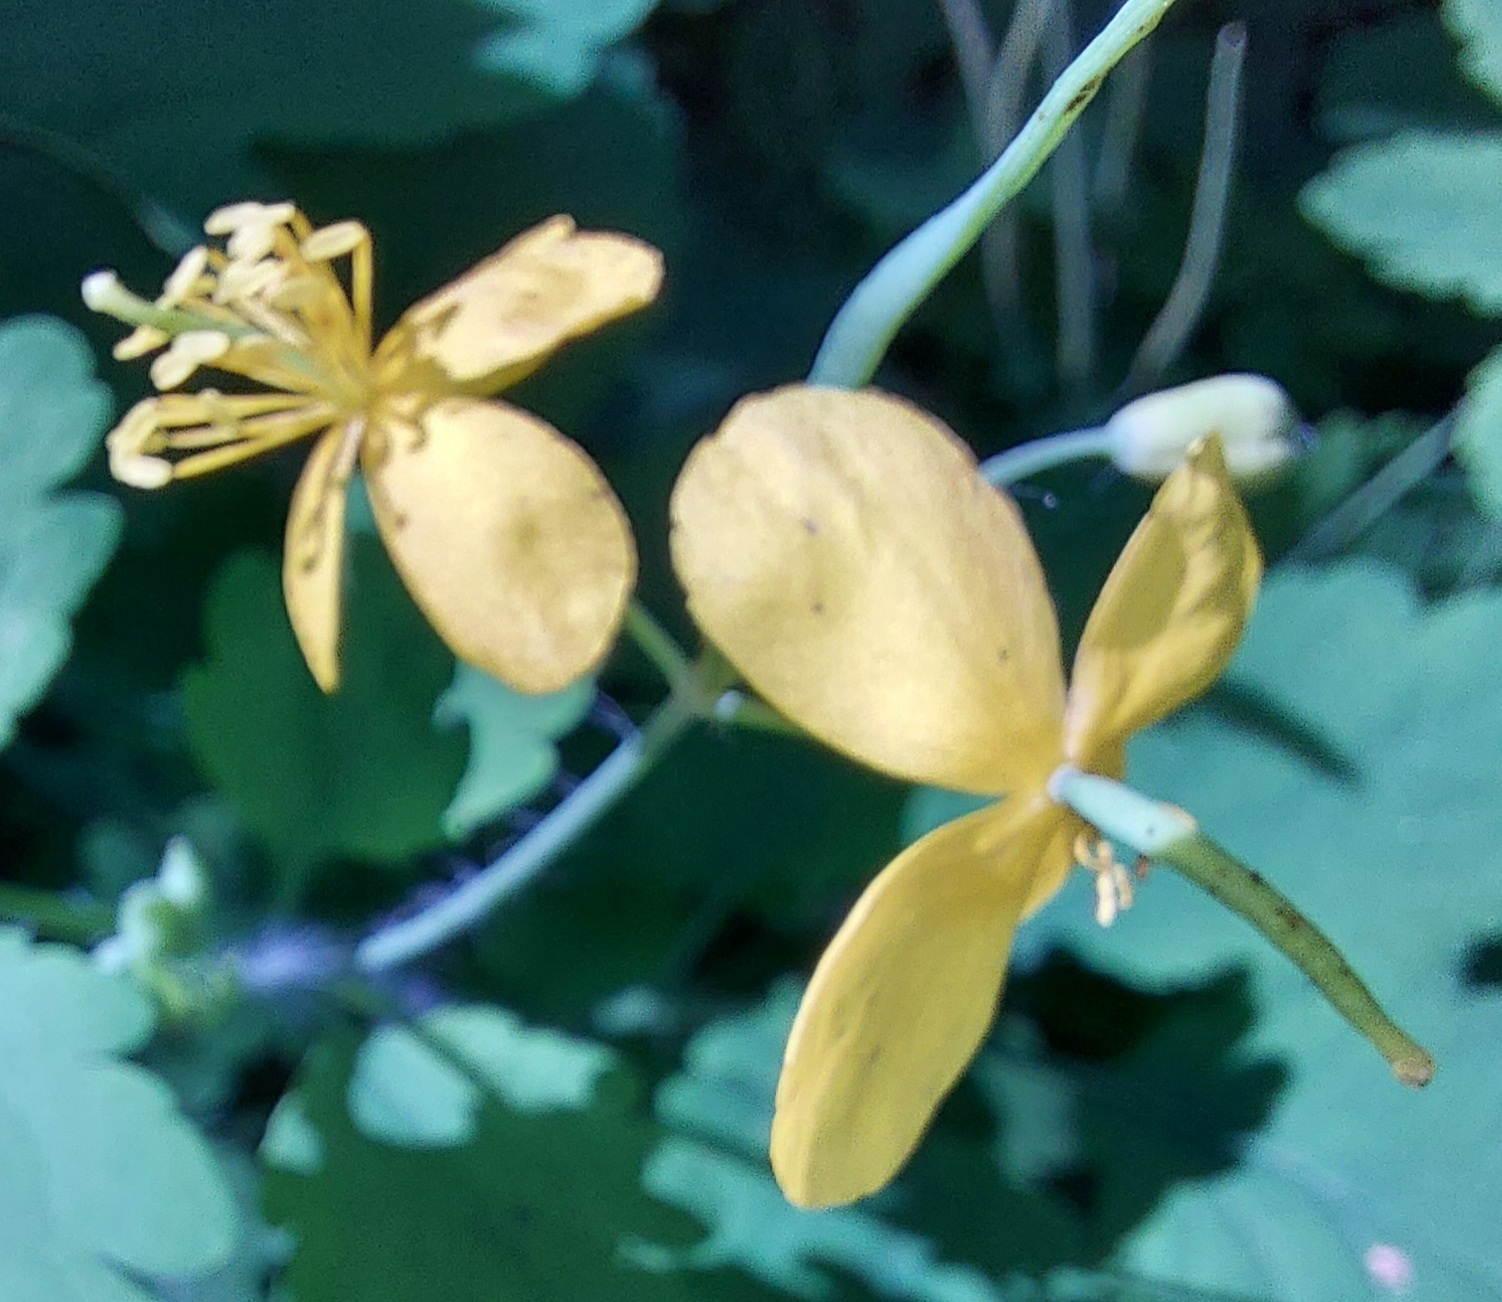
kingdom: Plantae
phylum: Tracheophyta
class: Magnoliopsida
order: Ranunculales
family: Papaveraceae
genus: Chelidonium
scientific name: Chelidonium majus
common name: Greater celandine
